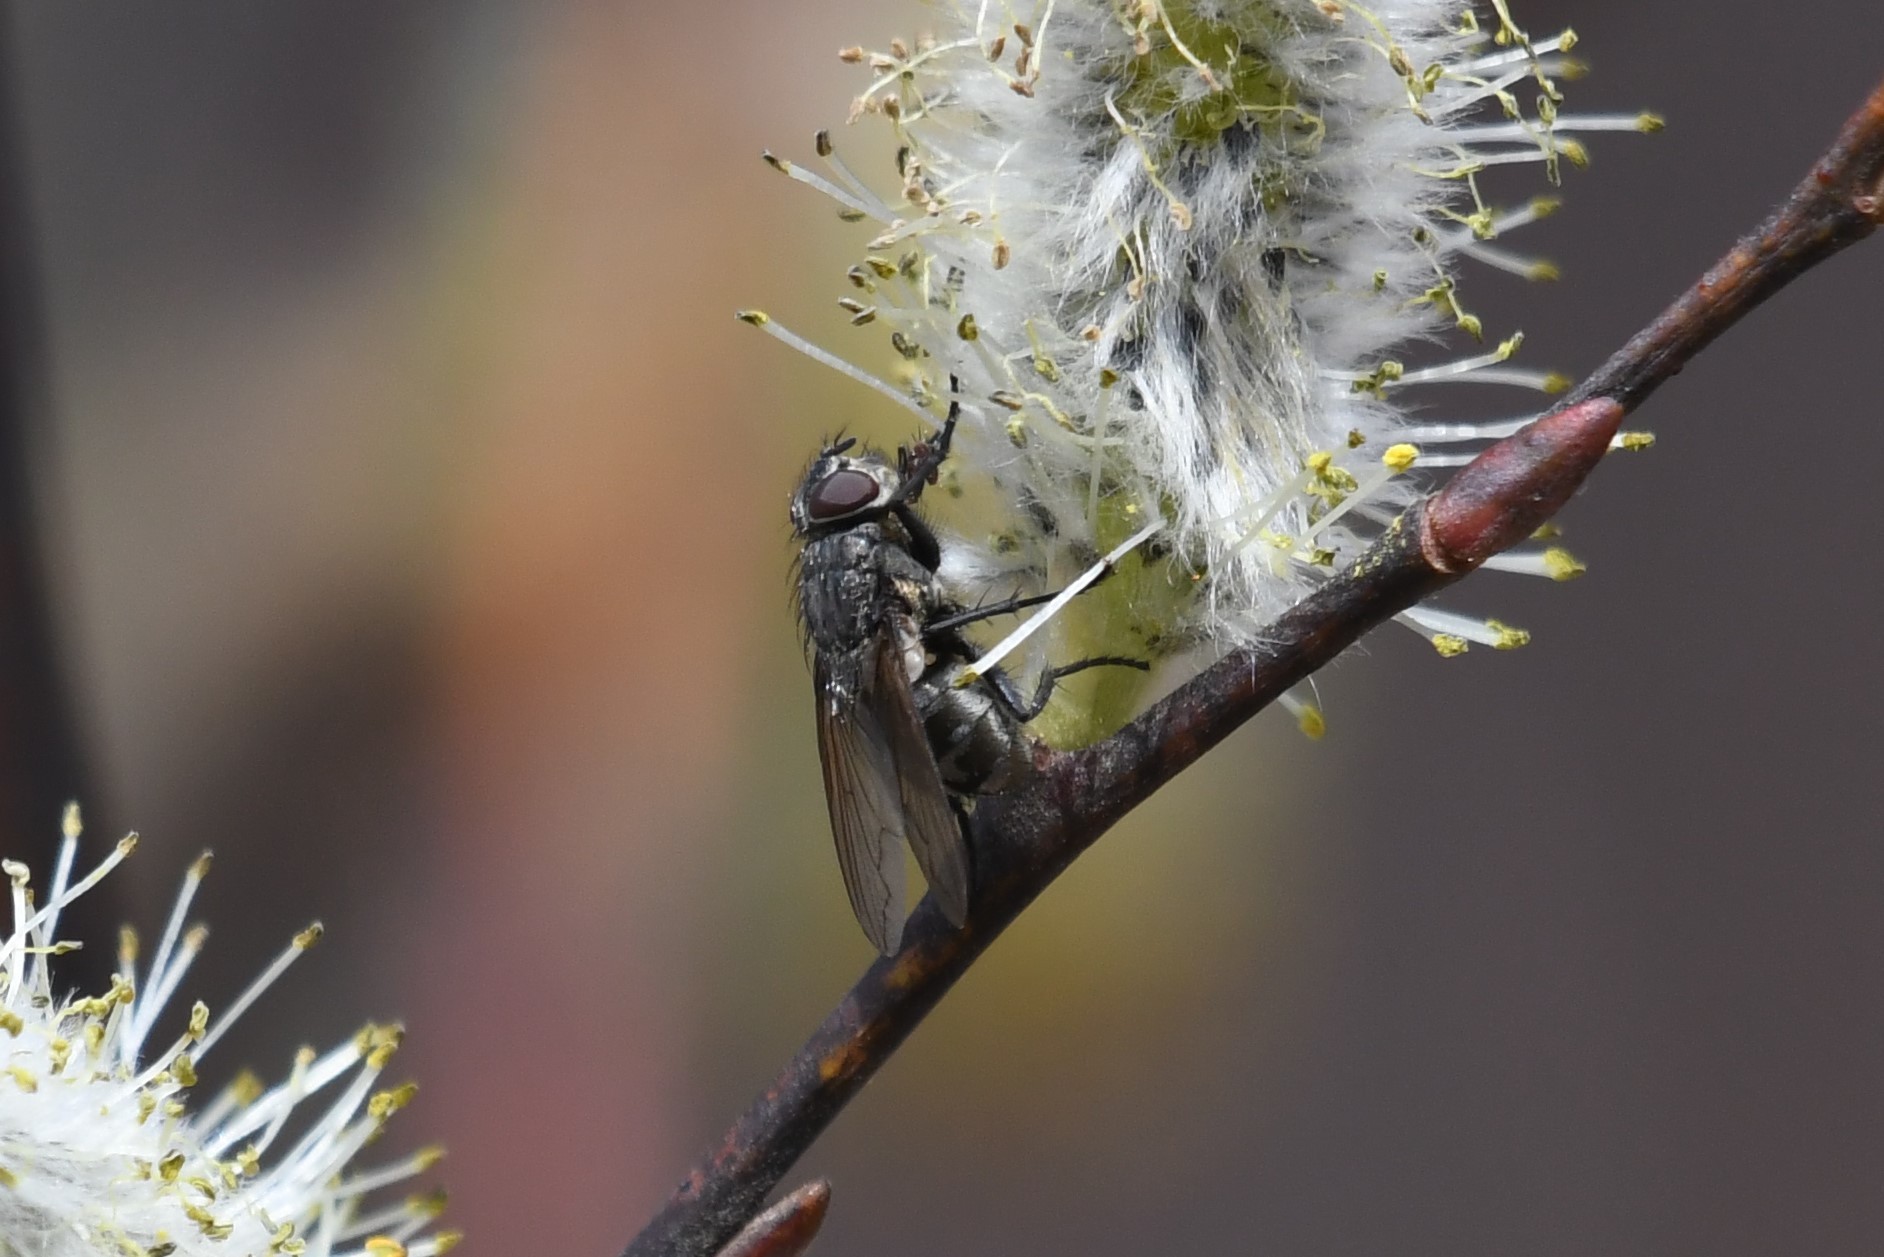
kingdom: Animalia
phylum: Arthropoda
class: Insecta
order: Diptera
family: Polleniidae
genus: Pollenia
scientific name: Pollenia
